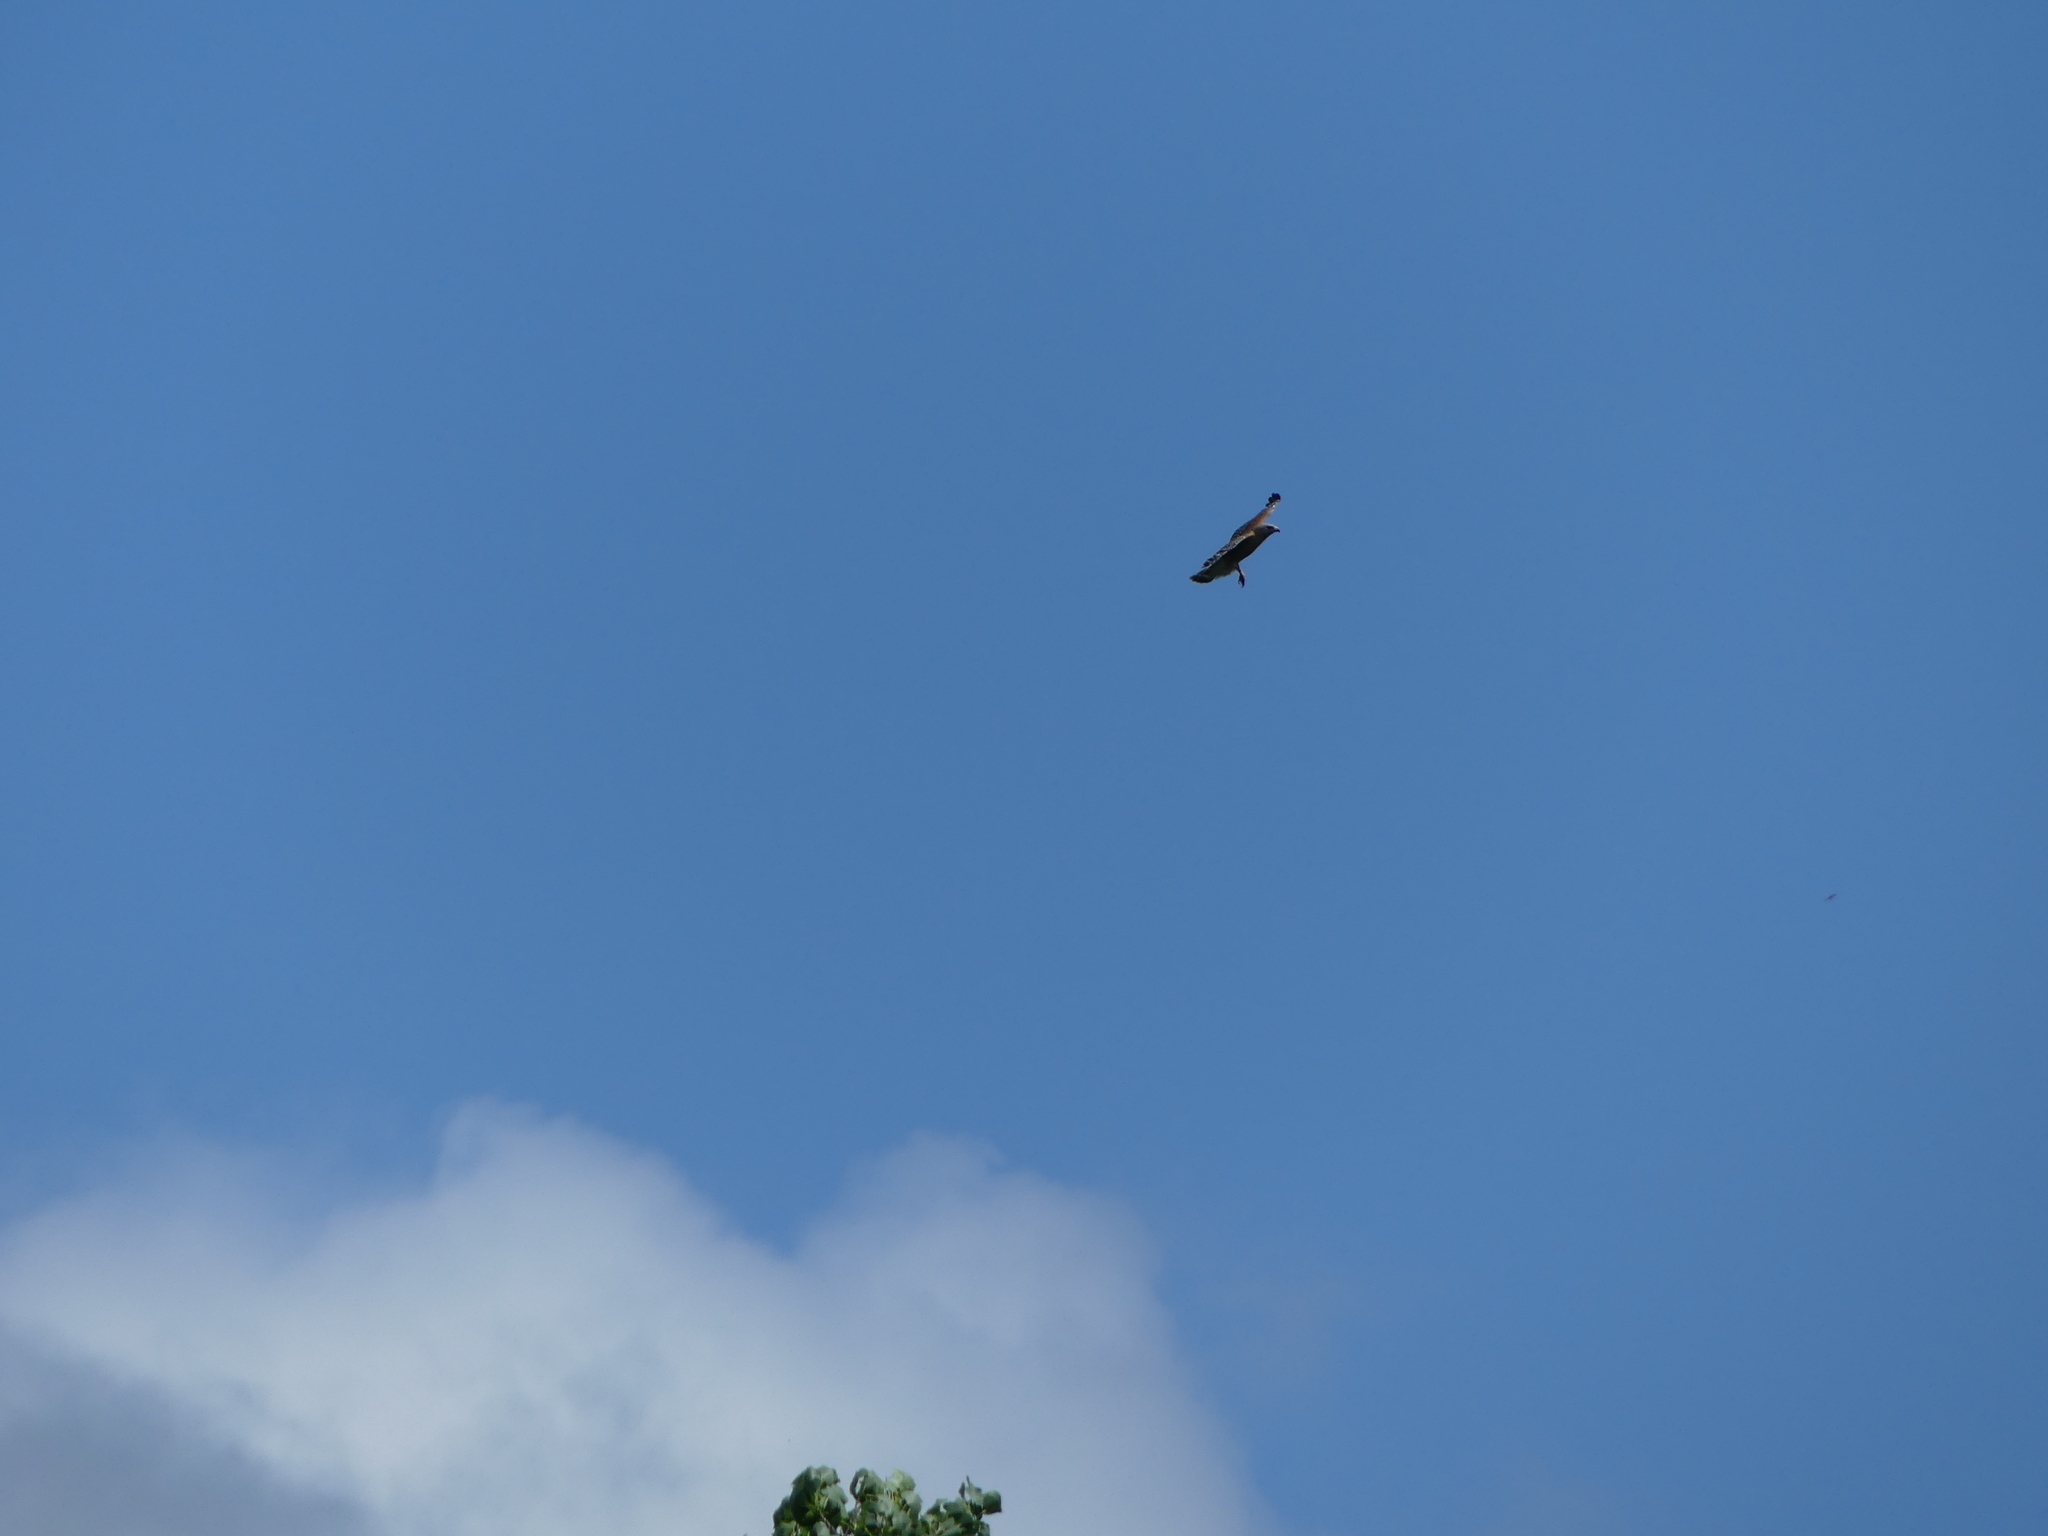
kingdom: Animalia
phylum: Chordata
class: Aves
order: Accipitriformes
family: Accipitridae
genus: Buteo
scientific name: Buteo lineatus
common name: Red-shouldered hawk
